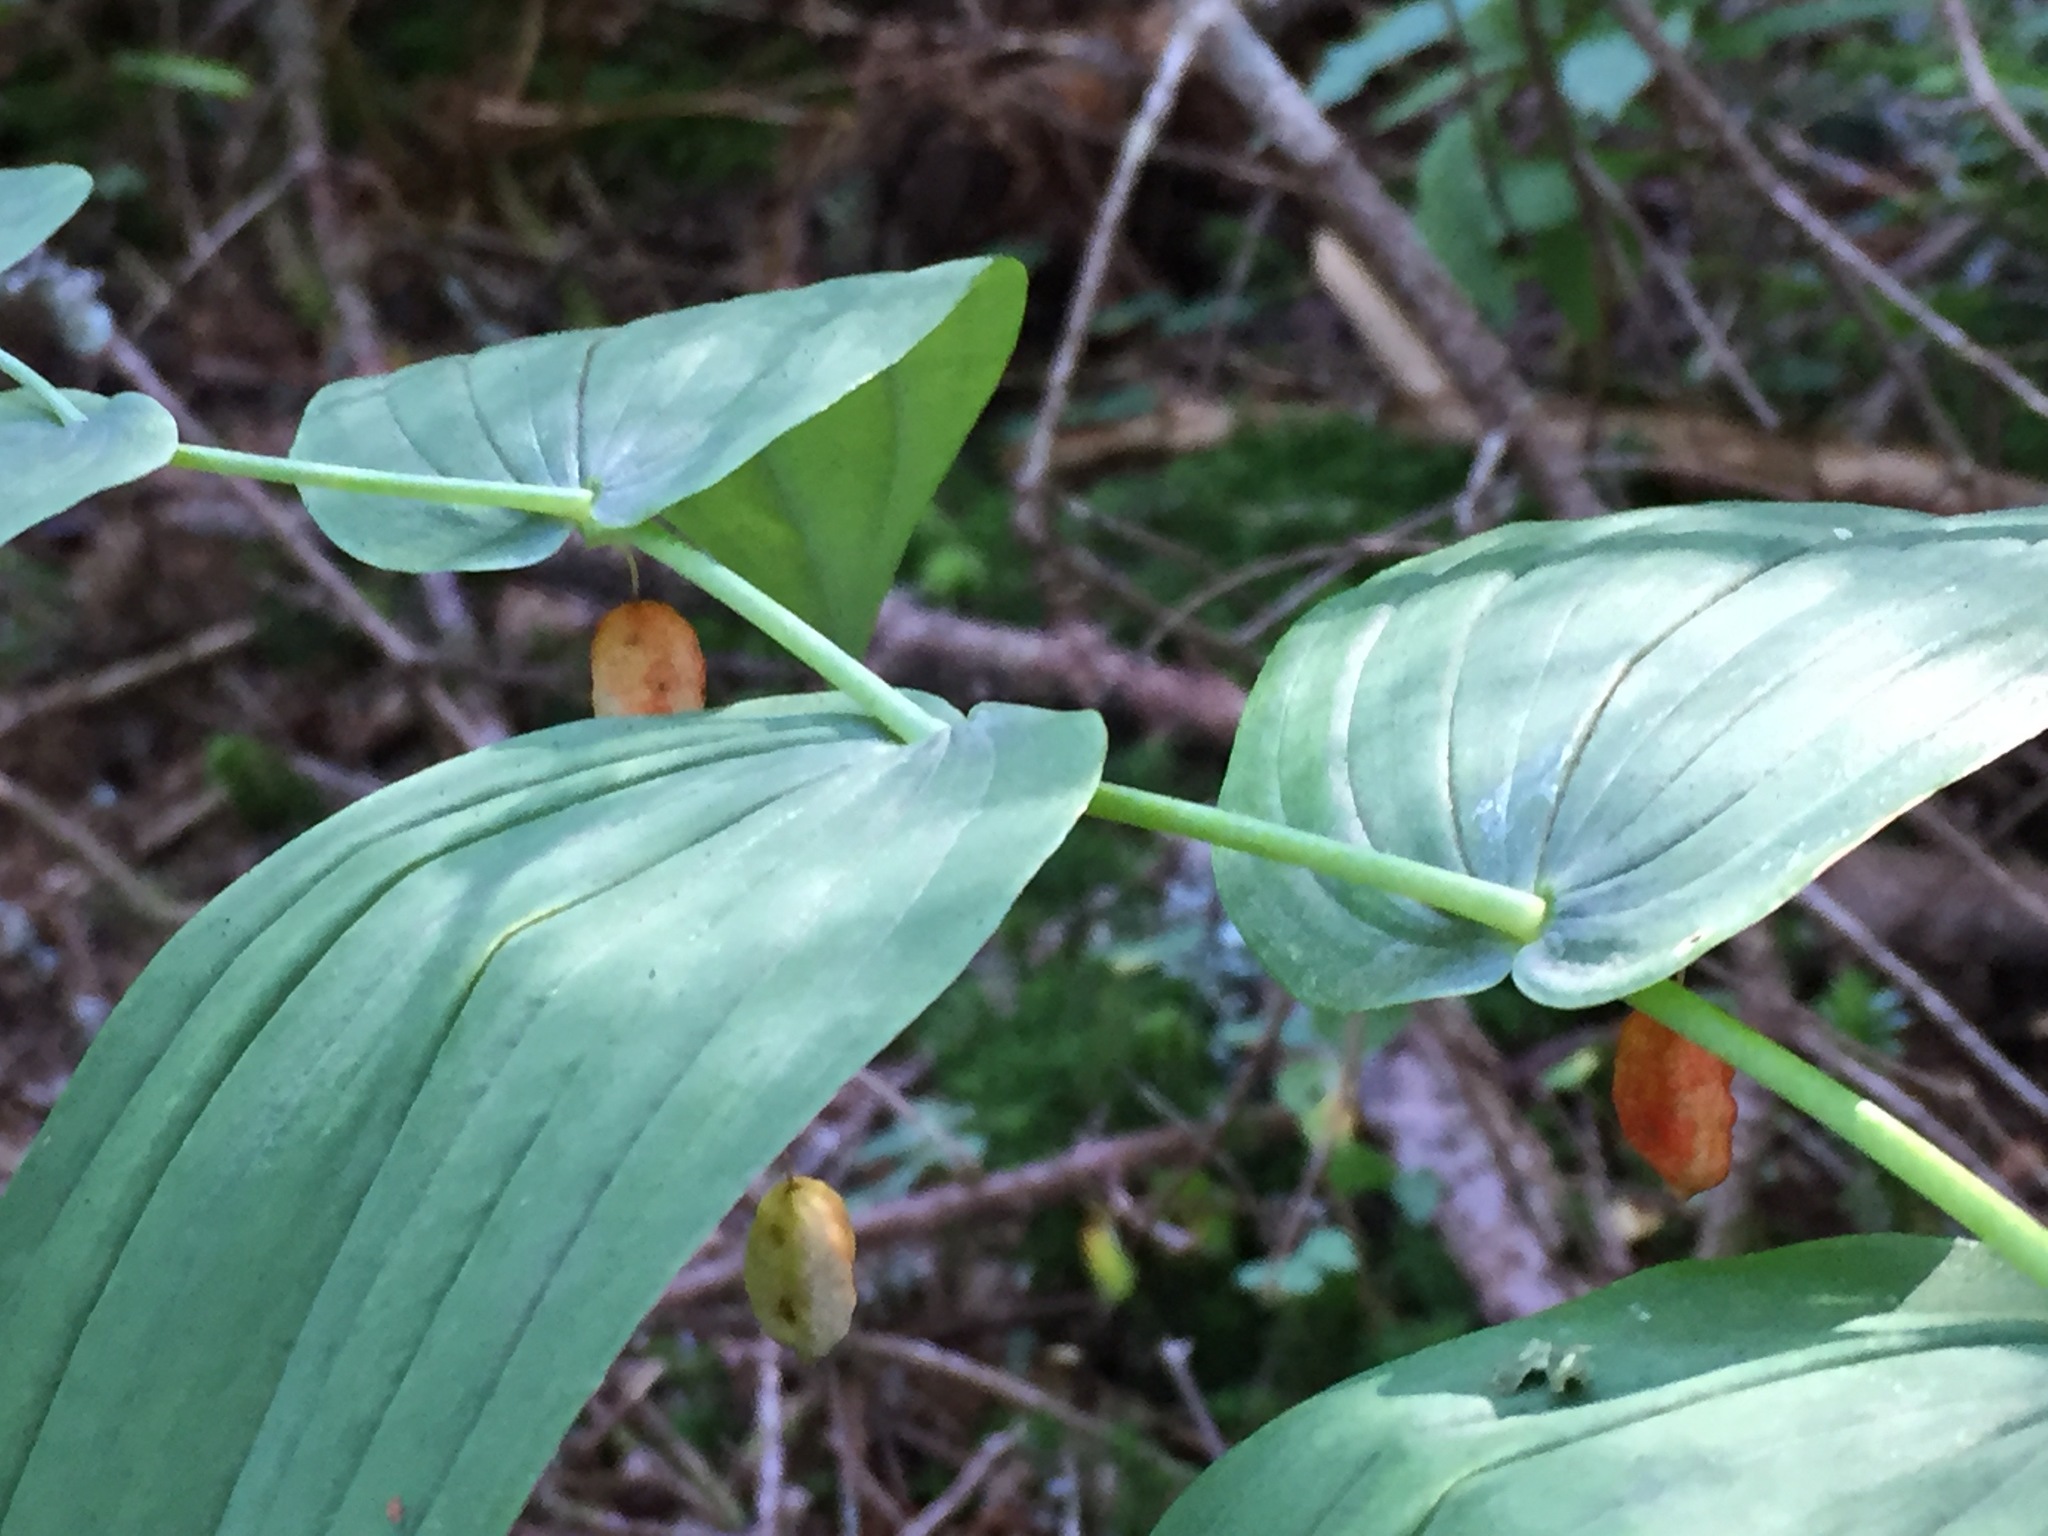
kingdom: Plantae
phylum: Tracheophyta
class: Liliopsida
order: Liliales
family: Liliaceae
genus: Streptopus
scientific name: Streptopus amplexifolius
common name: Clasp twisted stalk
